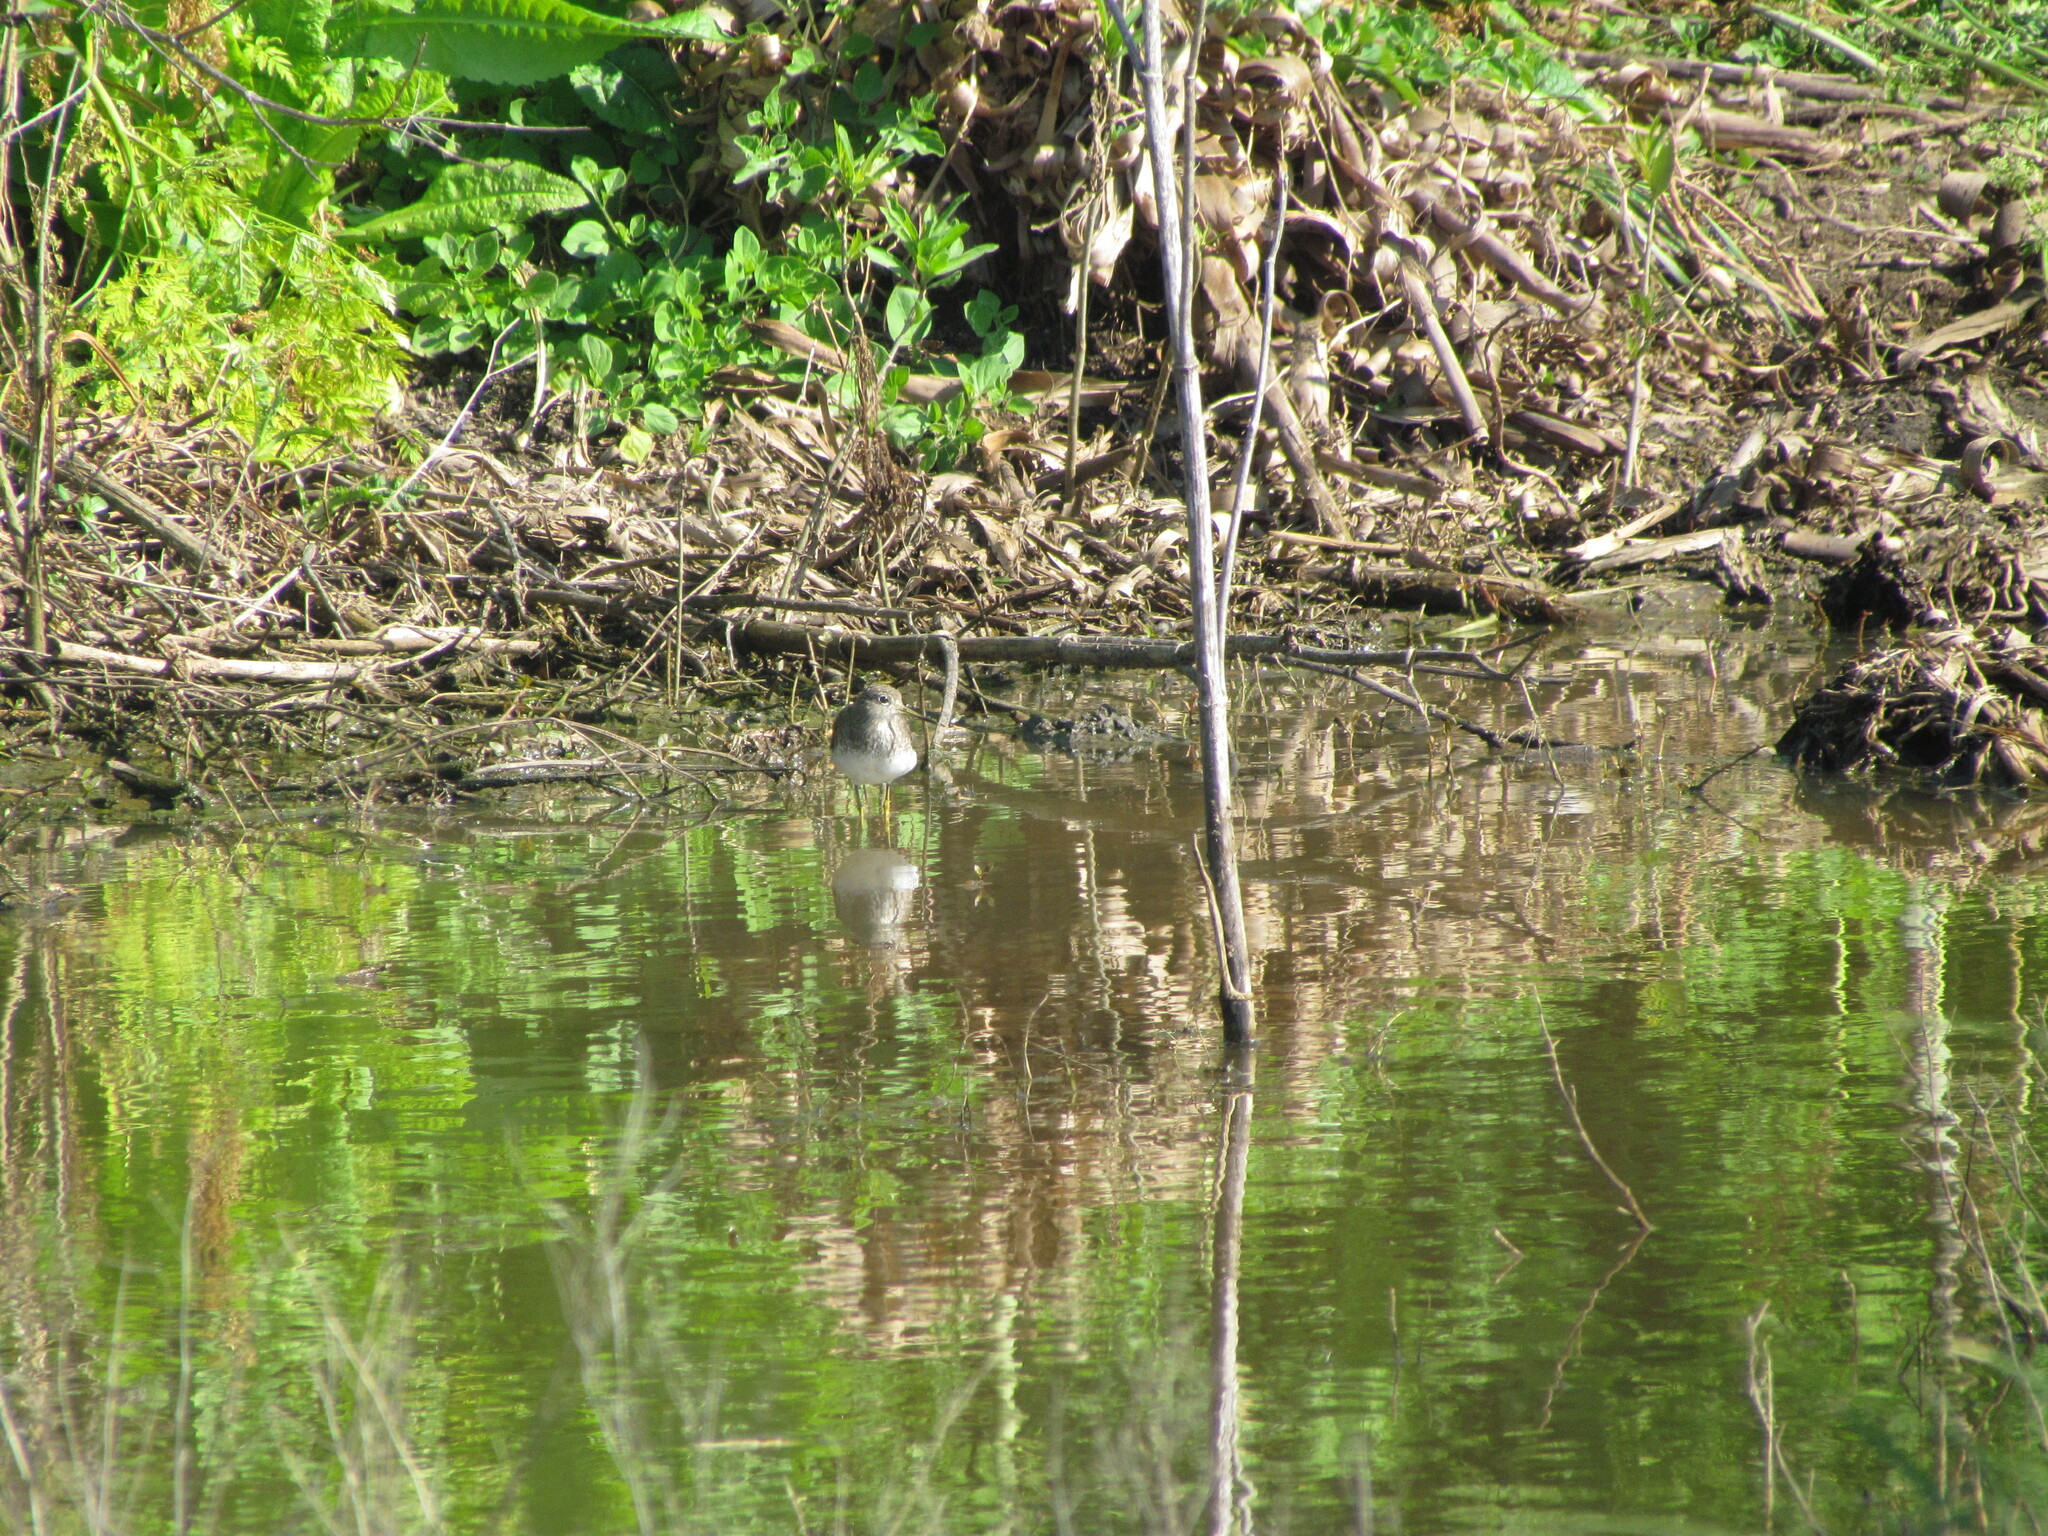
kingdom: Animalia
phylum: Chordata
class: Aves
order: Charadriiformes
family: Scolopacidae
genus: Tringa
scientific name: Tringa solitaria
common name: Solitary sandpiper
